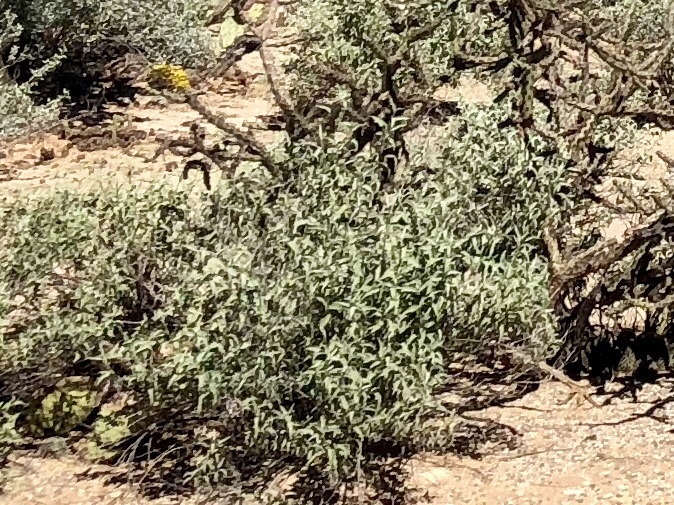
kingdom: Plantae
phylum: Tracheophyta
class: Magnoliopsida
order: Asterales
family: Asteraceae
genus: Ambrosia
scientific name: Ambrosia deltoidea
